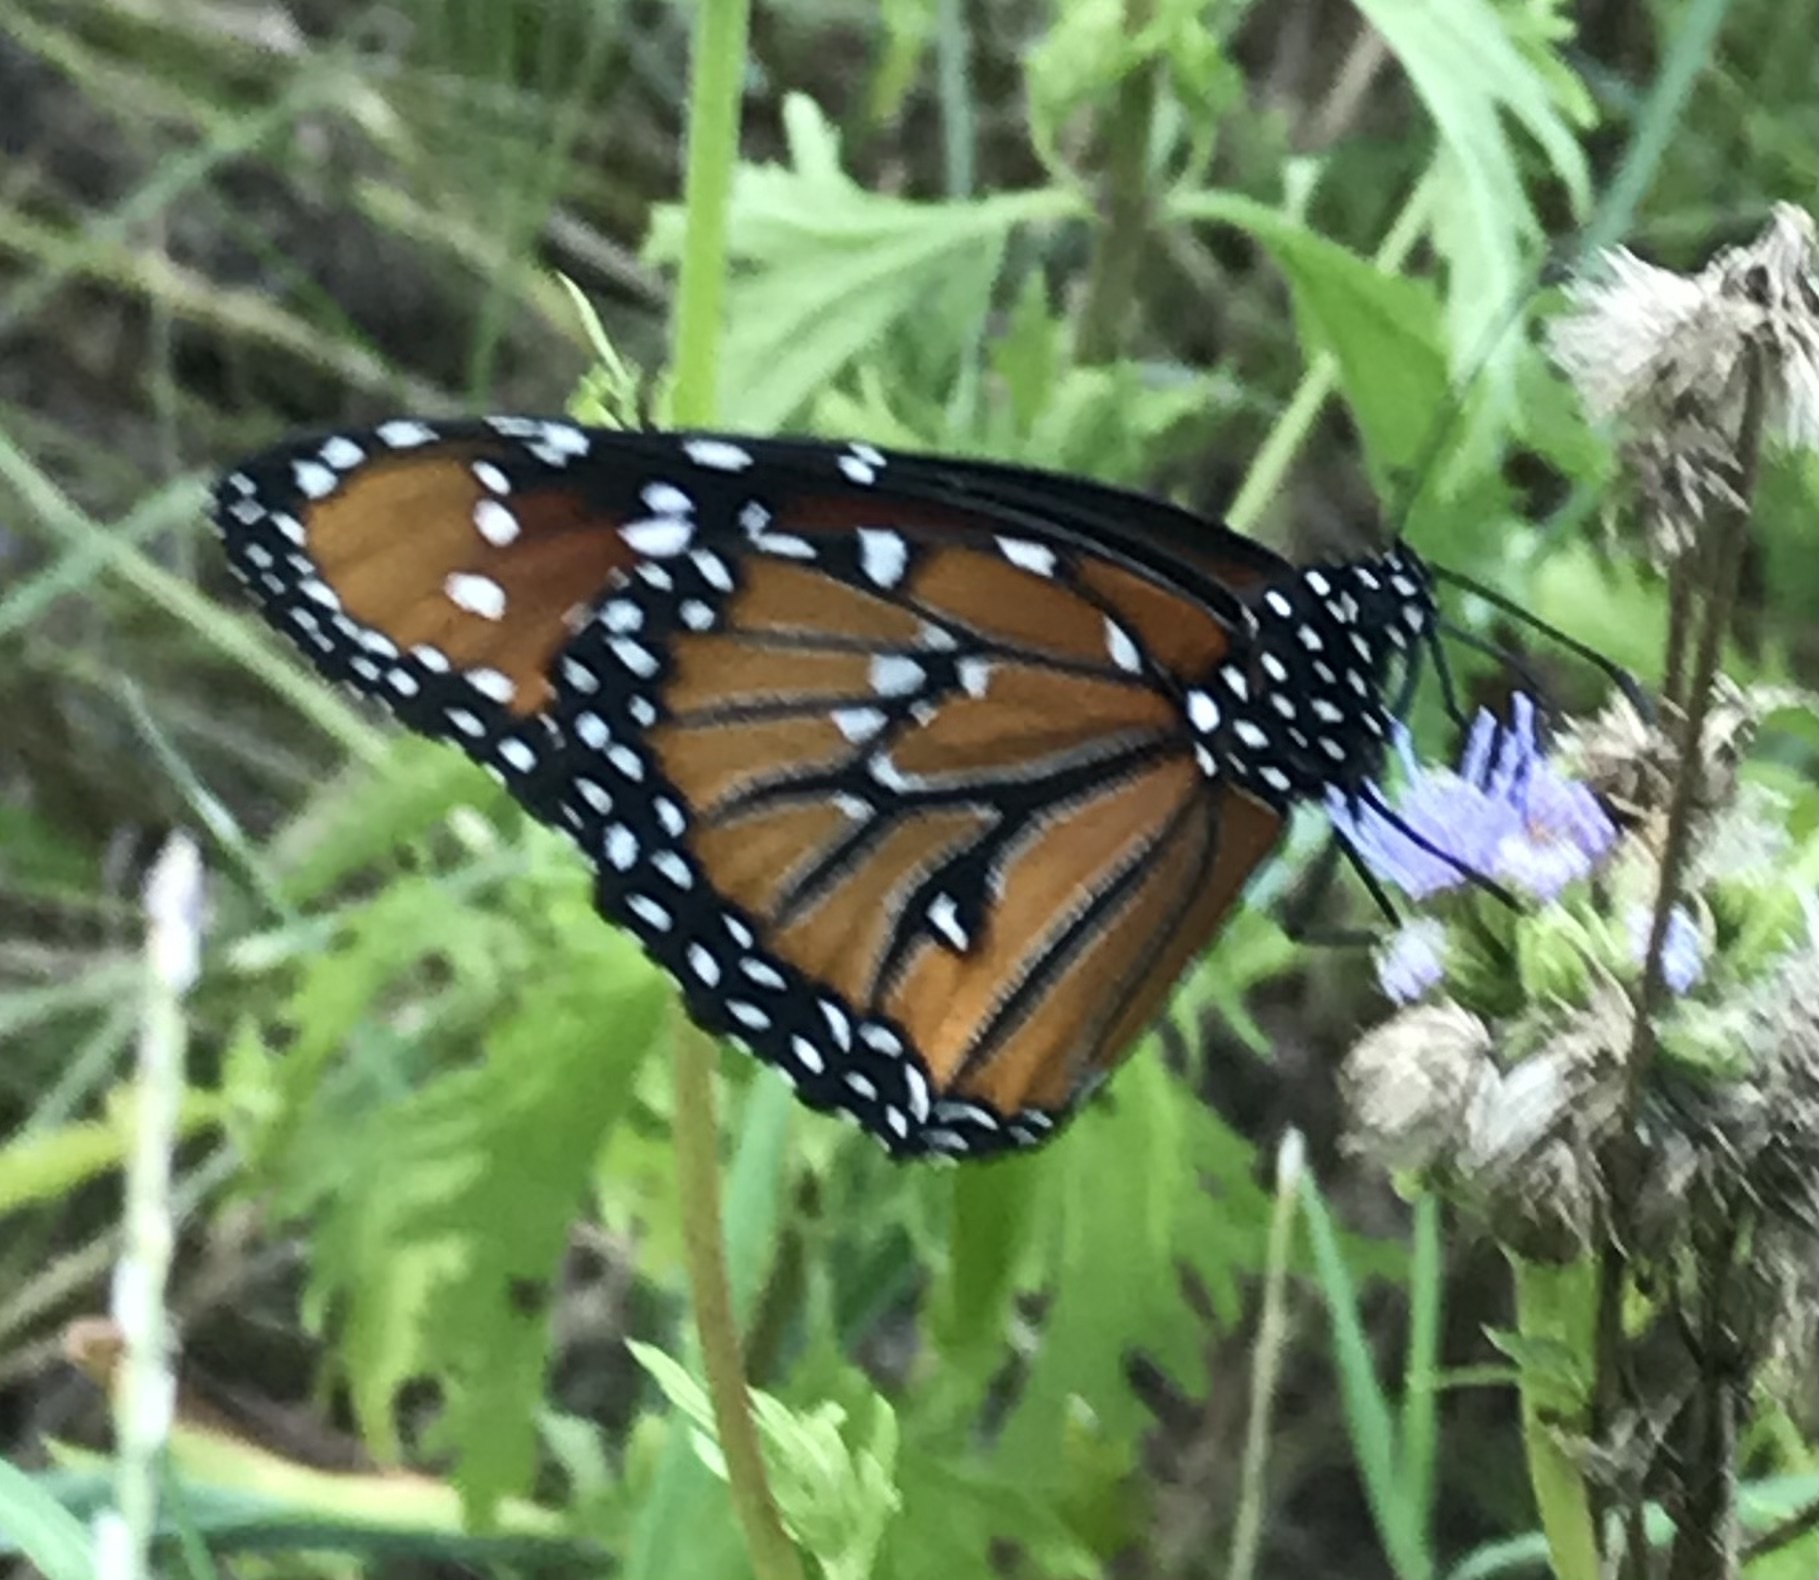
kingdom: Animalia
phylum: Arthropoda
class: Insecta
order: Lepidoptera
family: Nymphalidae
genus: Danaus
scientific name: Danaus gilippus
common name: Queen
